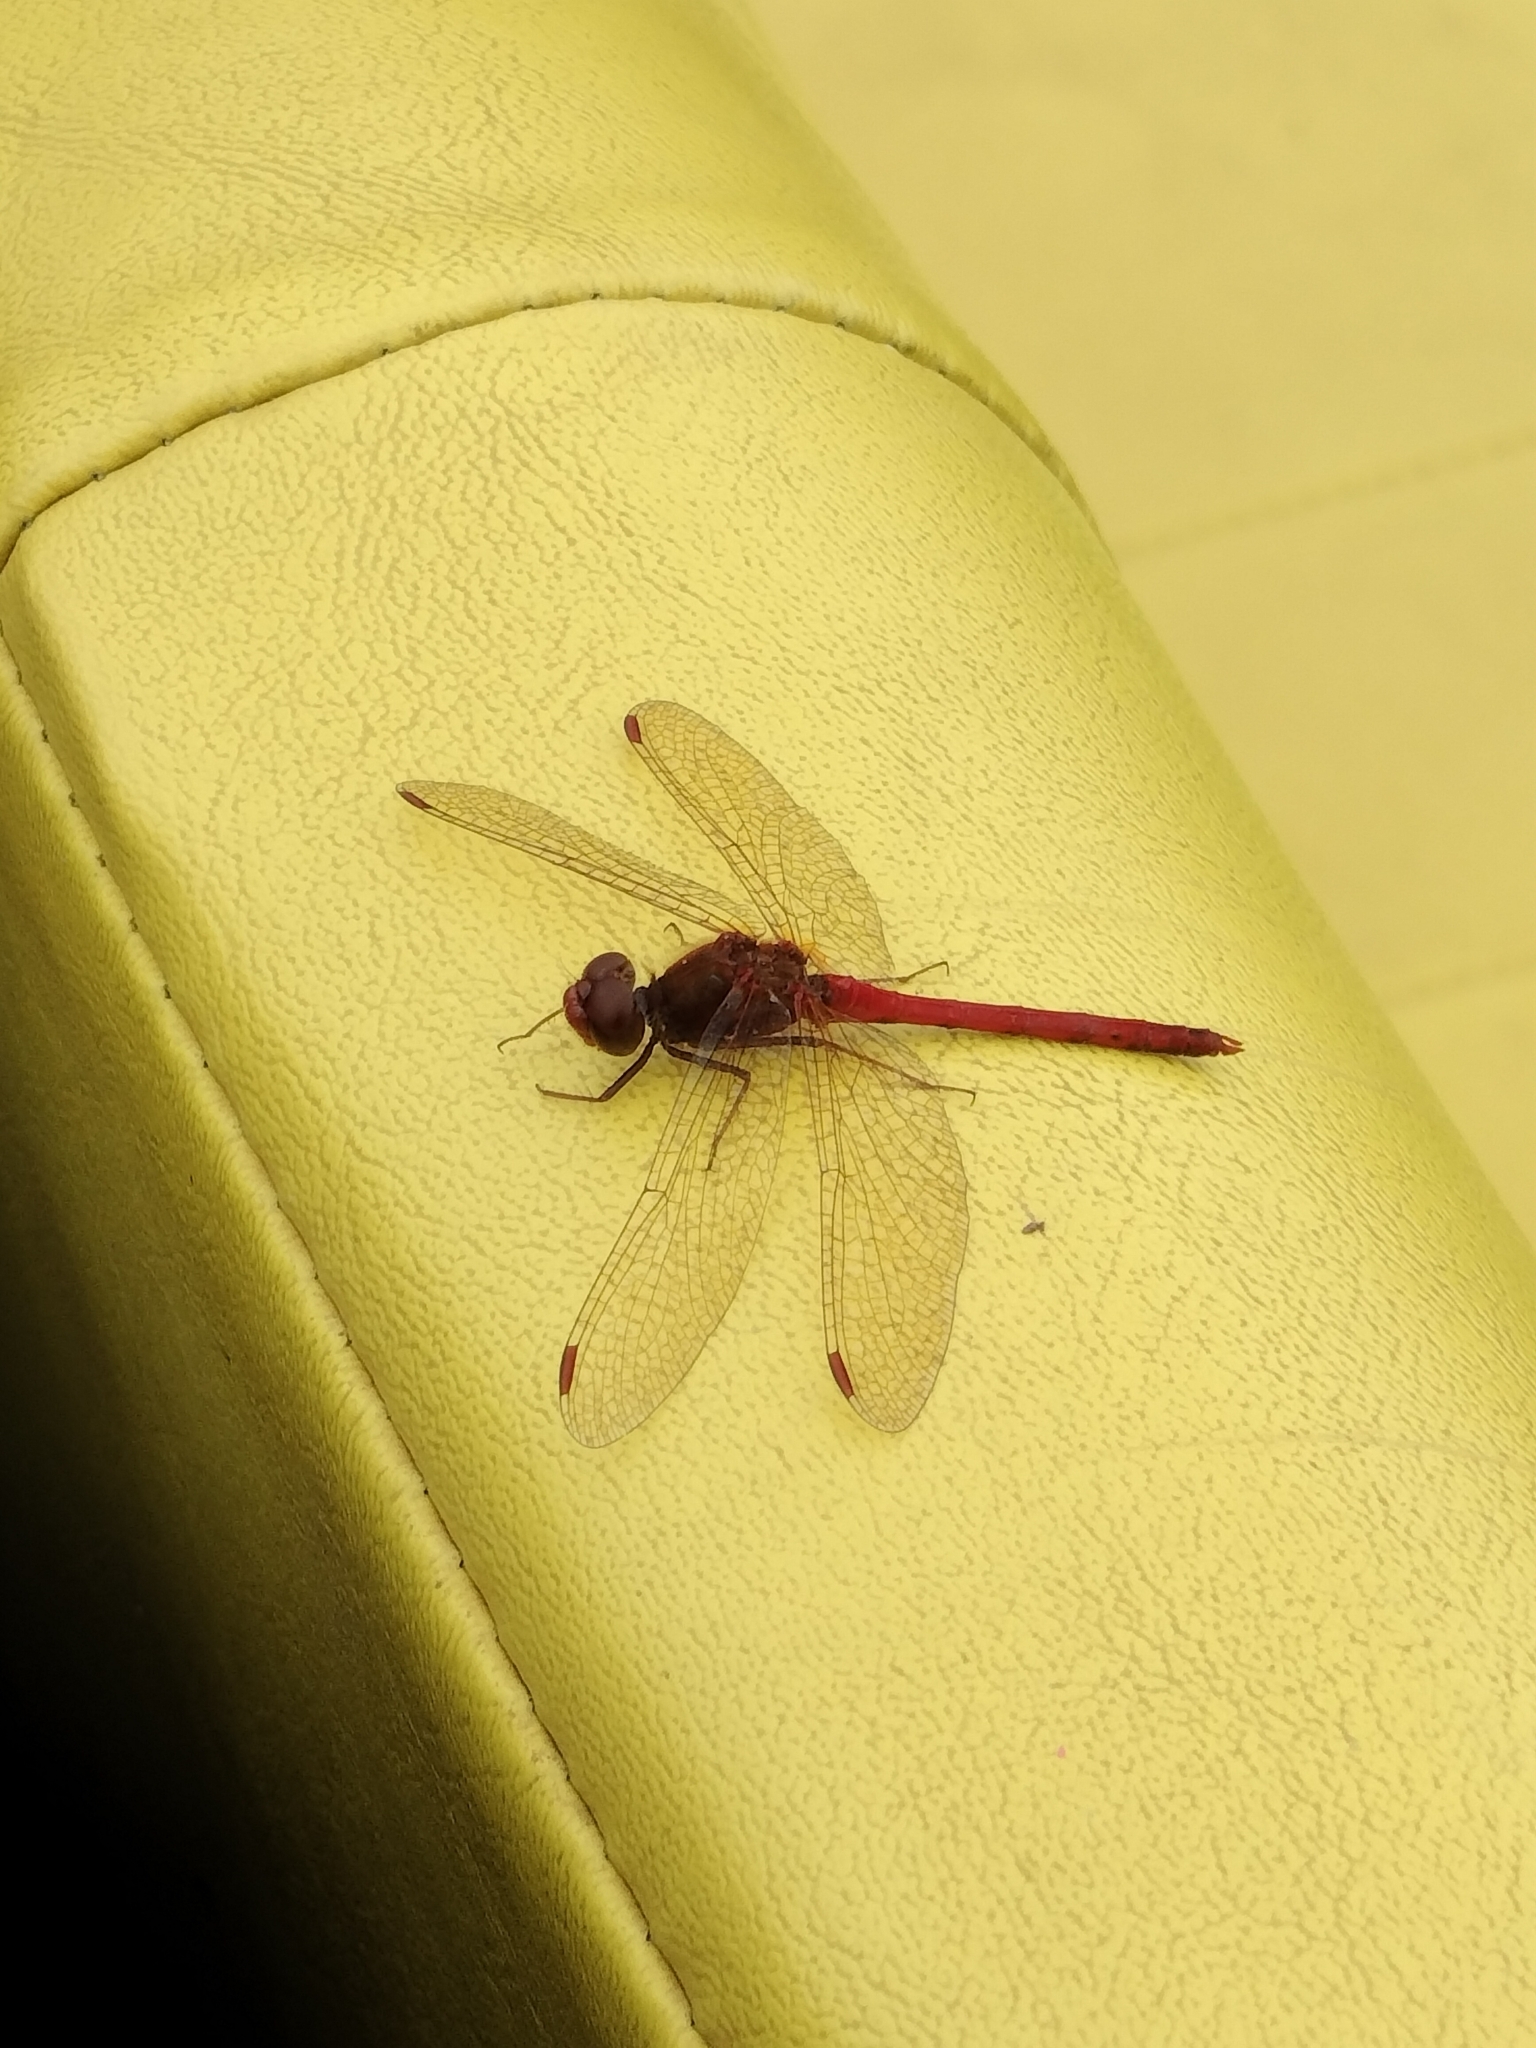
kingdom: Animalia
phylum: Arthropoda
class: Insecta
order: Odonata
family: Libellulidae
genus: Sympetrum
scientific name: Sympetrum vicinum
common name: Autumn meadowhawk
